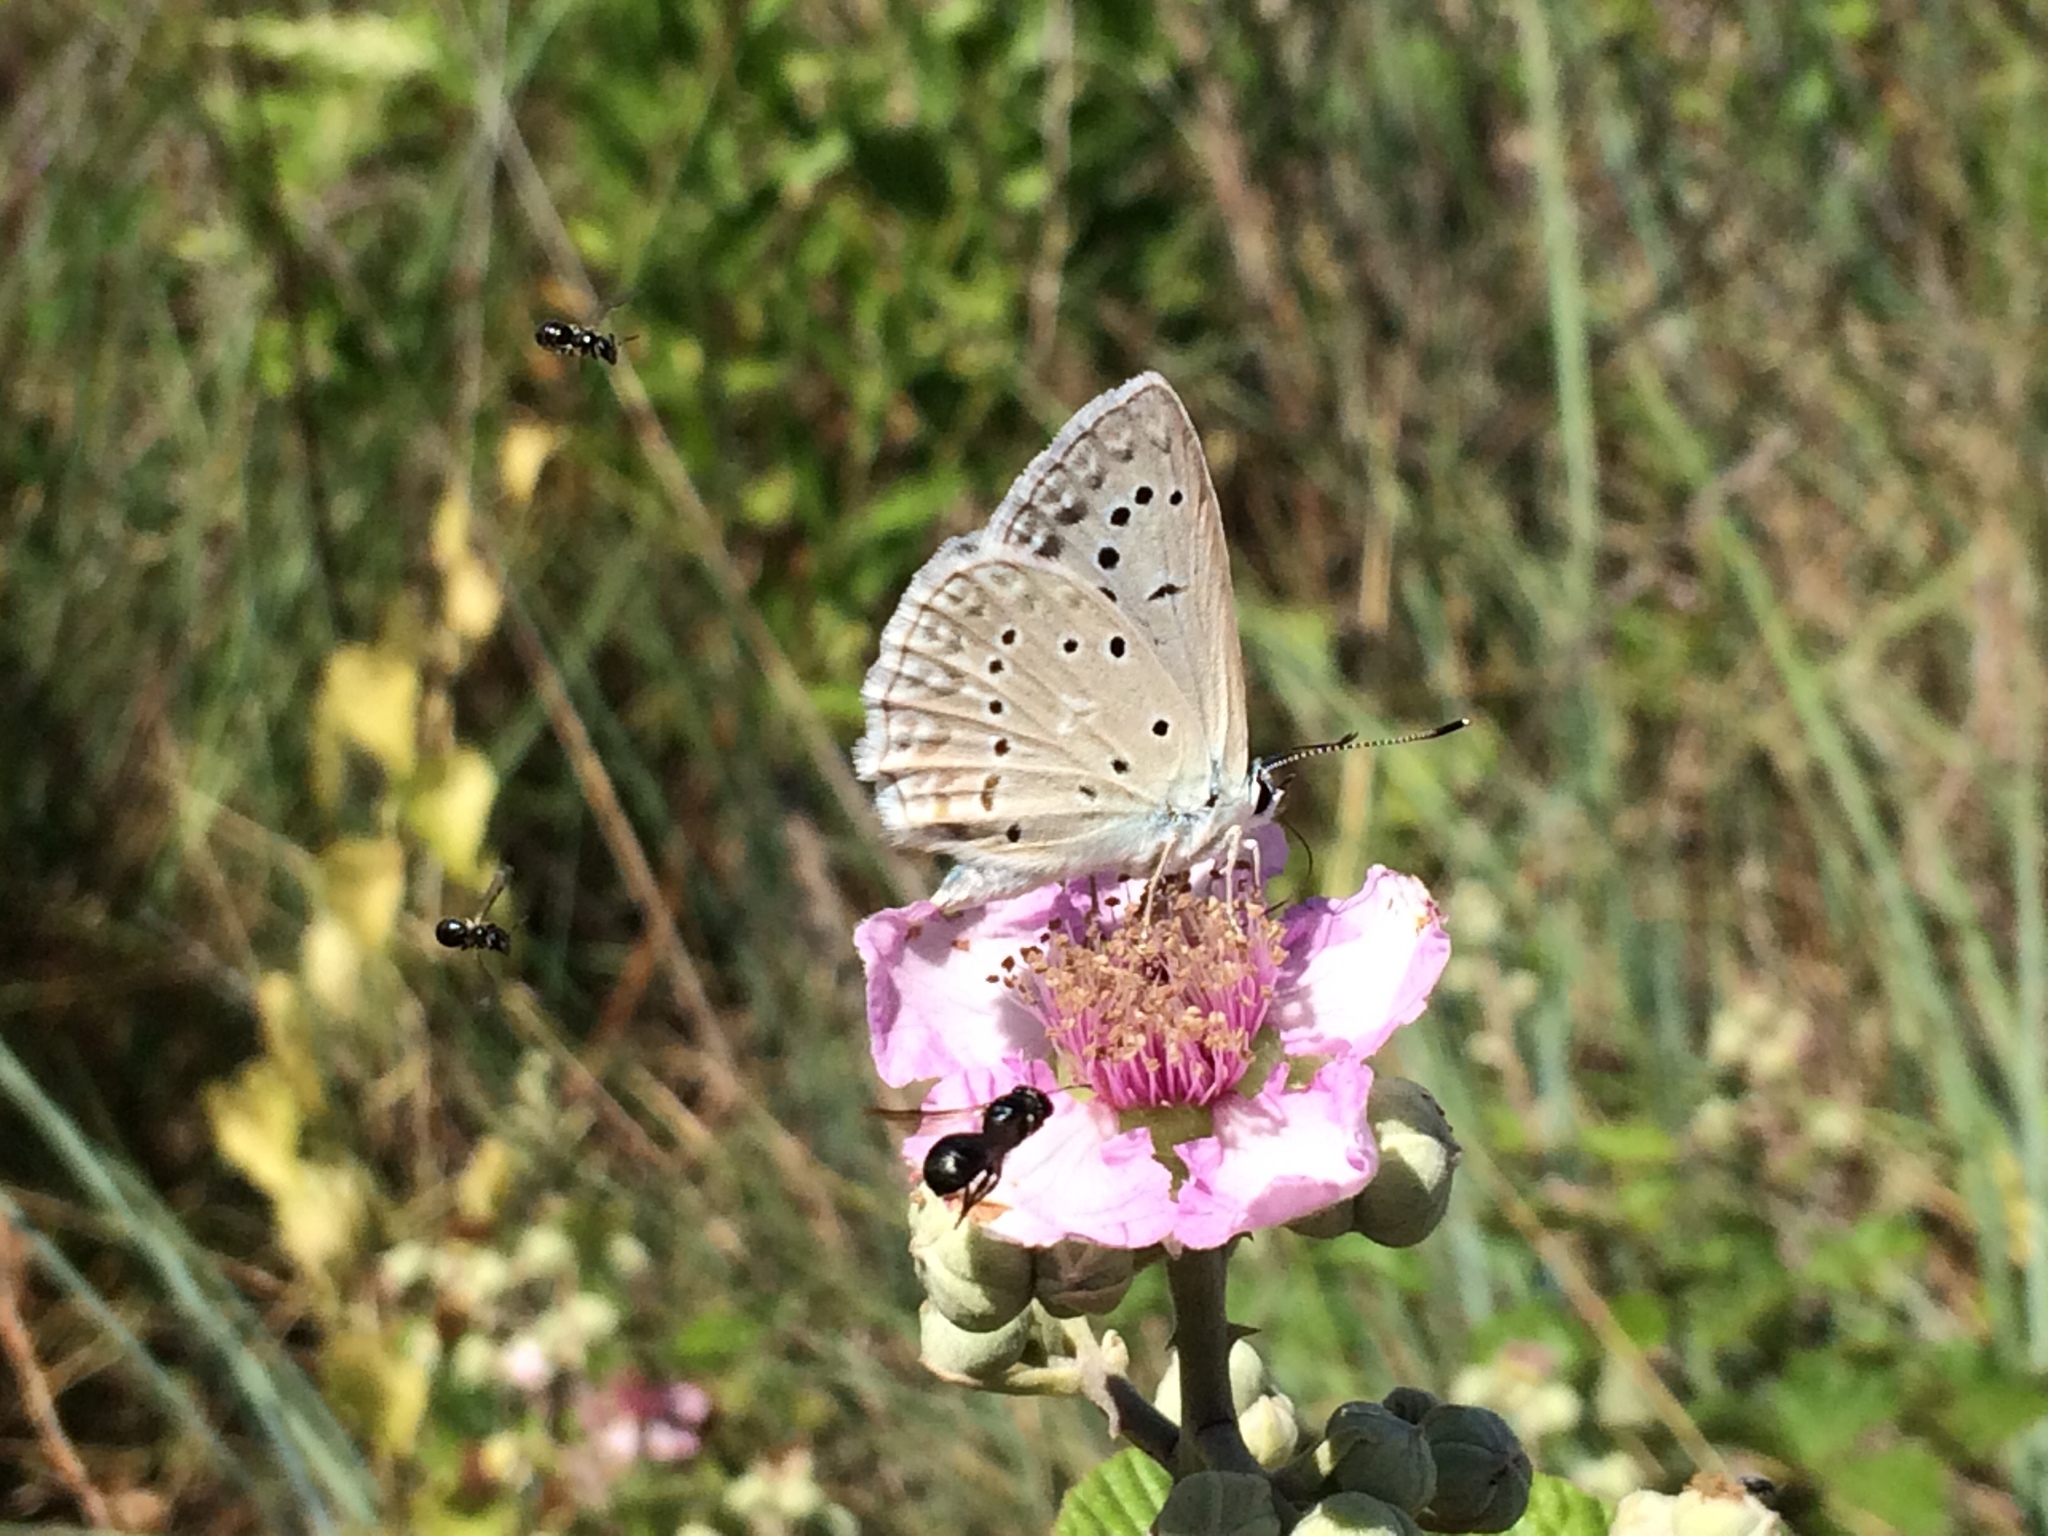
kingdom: Animalia
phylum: Arthropoda
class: Insecta
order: Lepidoptera
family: Lycaenidae
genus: Polyommatus
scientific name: Polyommatus daphnis
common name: Meleager's blue
